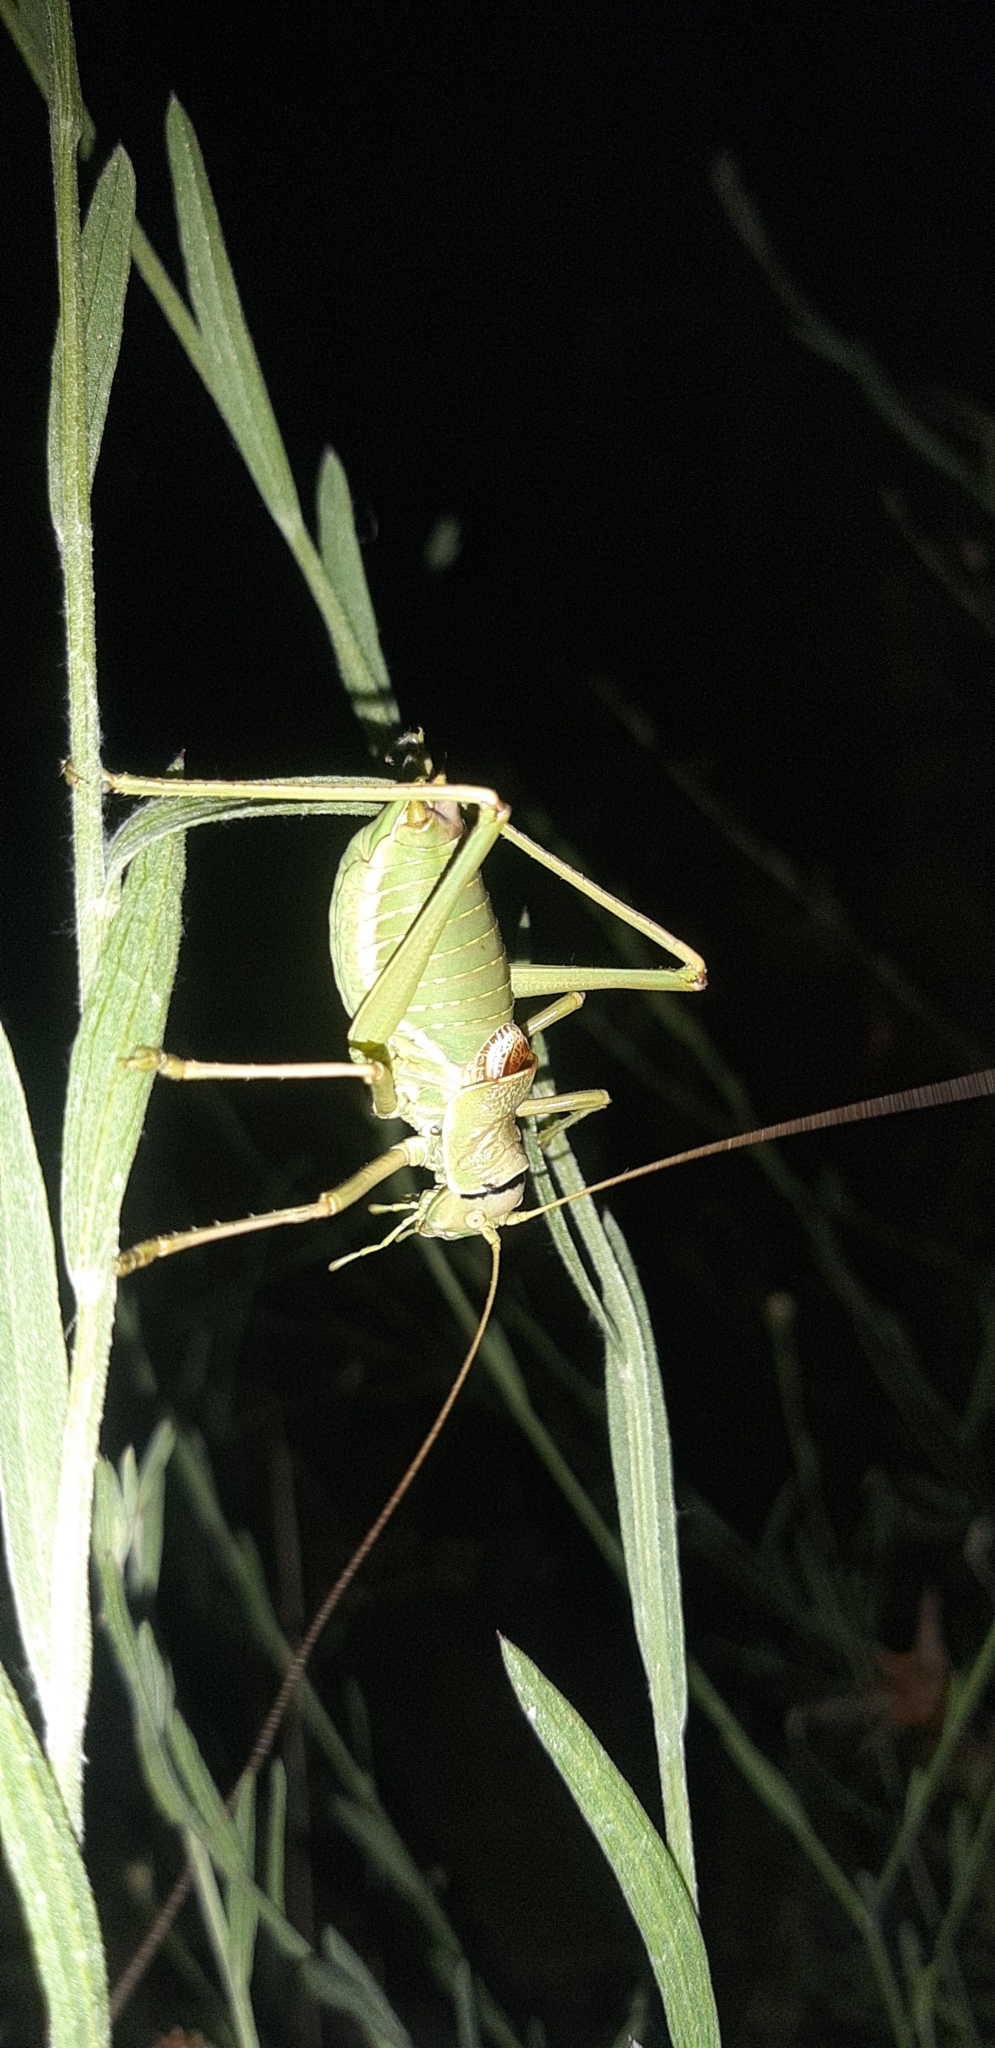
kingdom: Animalia
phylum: Arthropoda
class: Insecta
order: Orthoptera
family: Tettigoniidae
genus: Ephippiger
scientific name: Ephippiger apulus
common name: Apulian saddle bush-cricket
